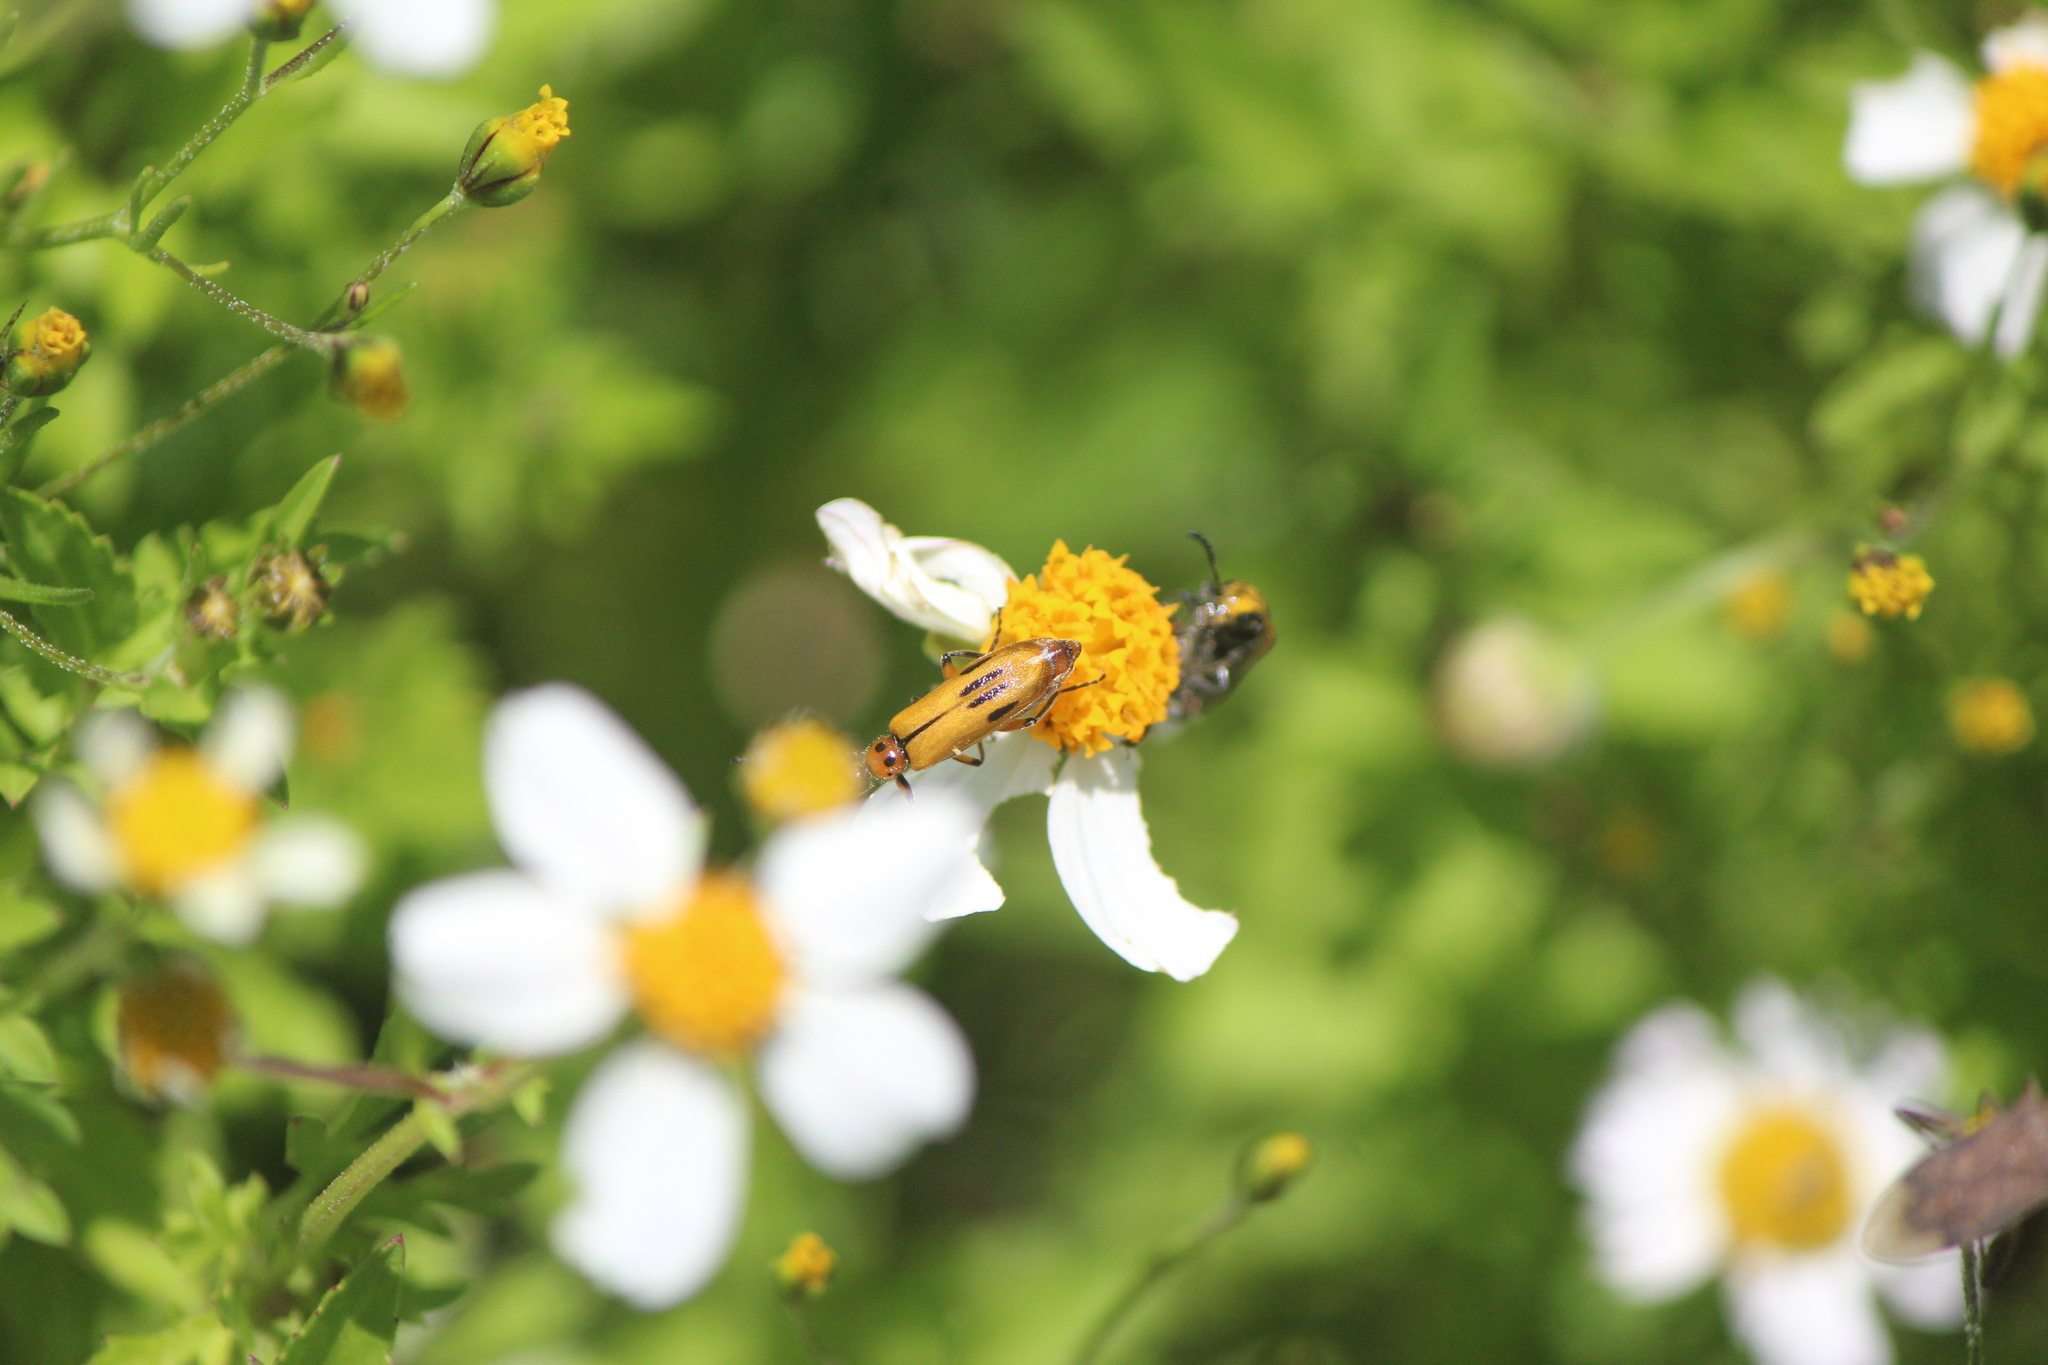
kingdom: Animalia
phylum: Arthropoda
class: Insecta
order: Coleoptera
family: Meloidae
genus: Lytta
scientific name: Lytta biguttata
